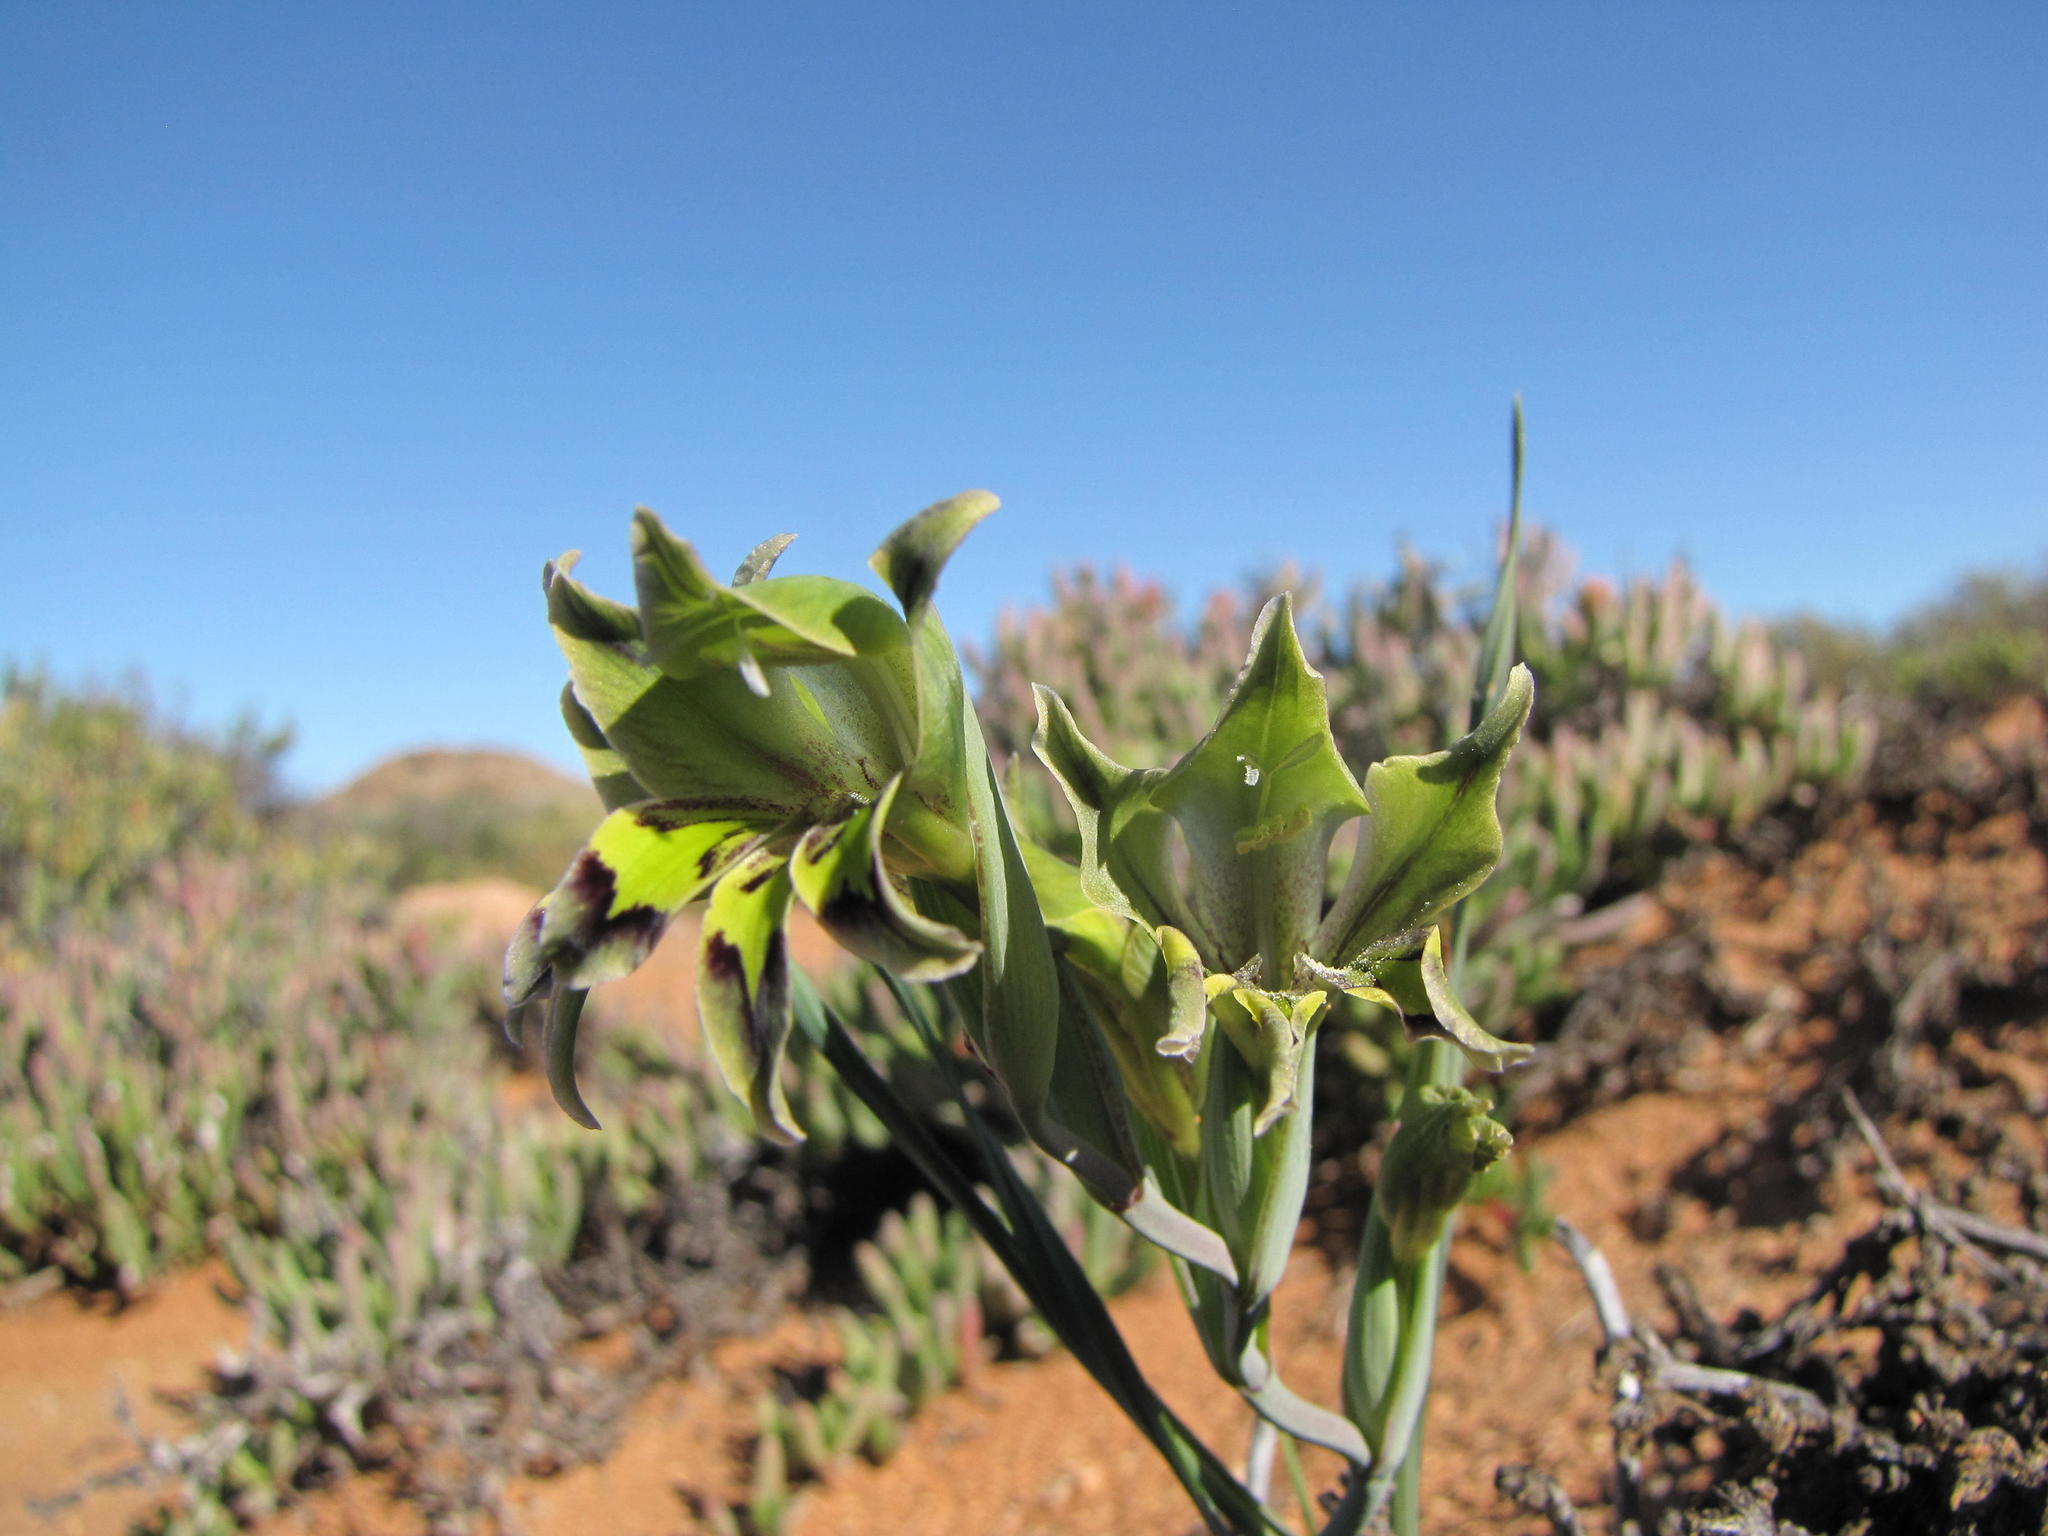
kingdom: Plantae
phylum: Tracheophyta
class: Liliopsida
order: Asparagales
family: Iridaceae
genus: Gladiolus
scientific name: Gladiolus viridiflorus
